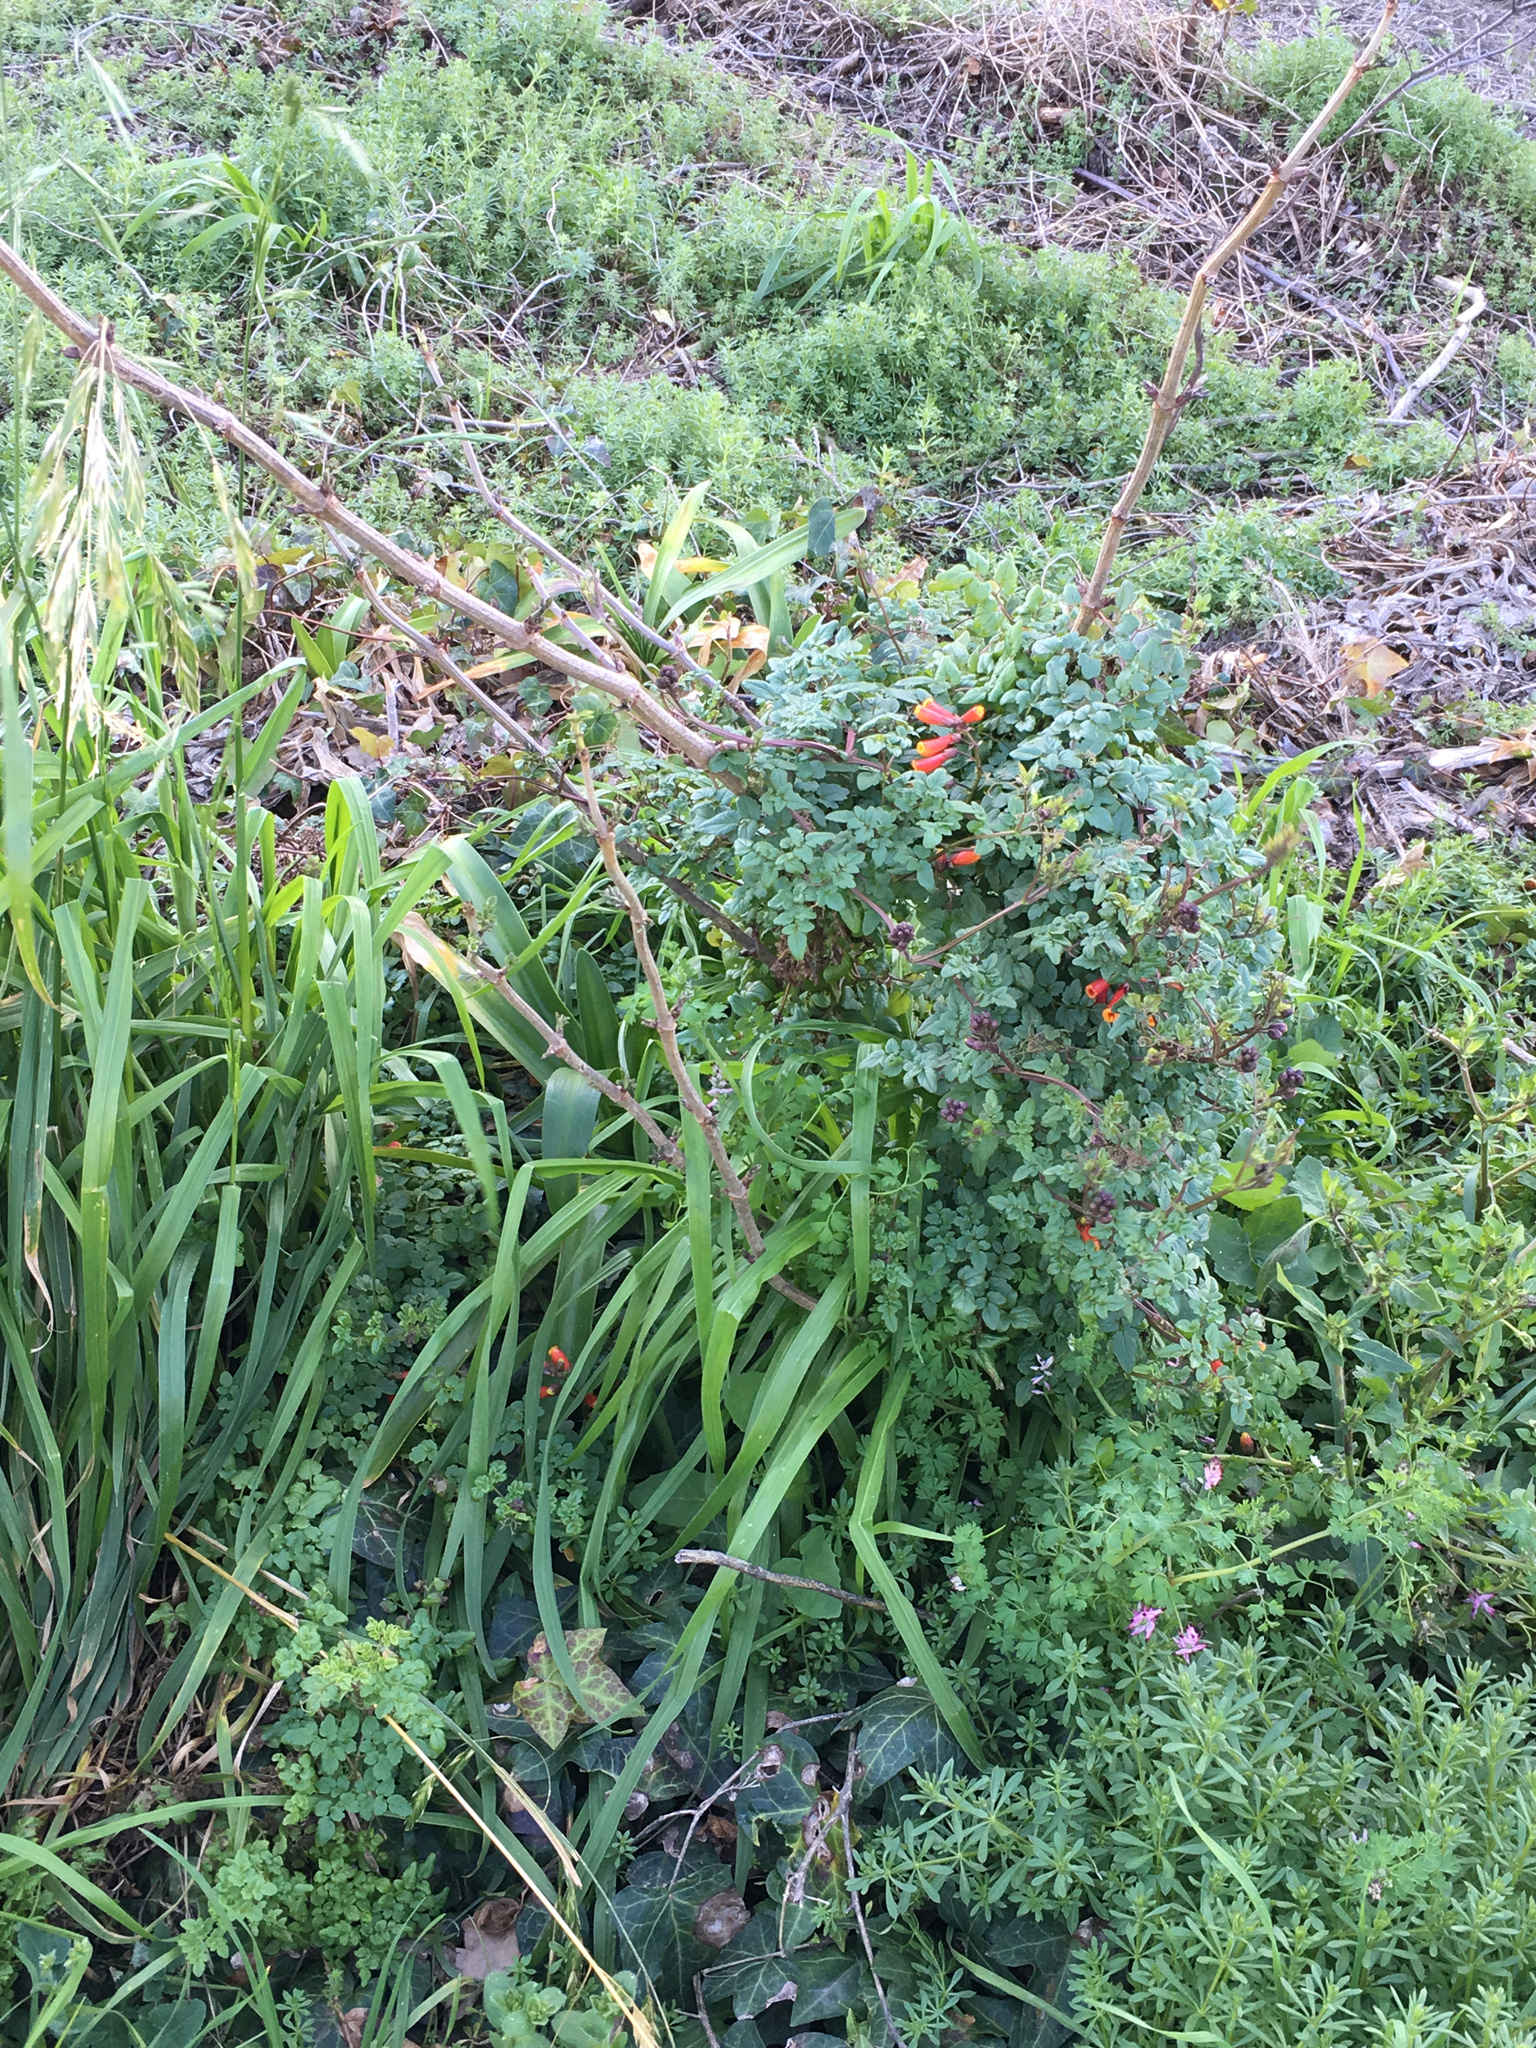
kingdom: Plantae
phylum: Tracheophyta
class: Magnoliopsida
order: Lamiales
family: Bignoniaceae
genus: Eccremocarpus
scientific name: Eccremocarpus scaber
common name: Chilean glory-flower
